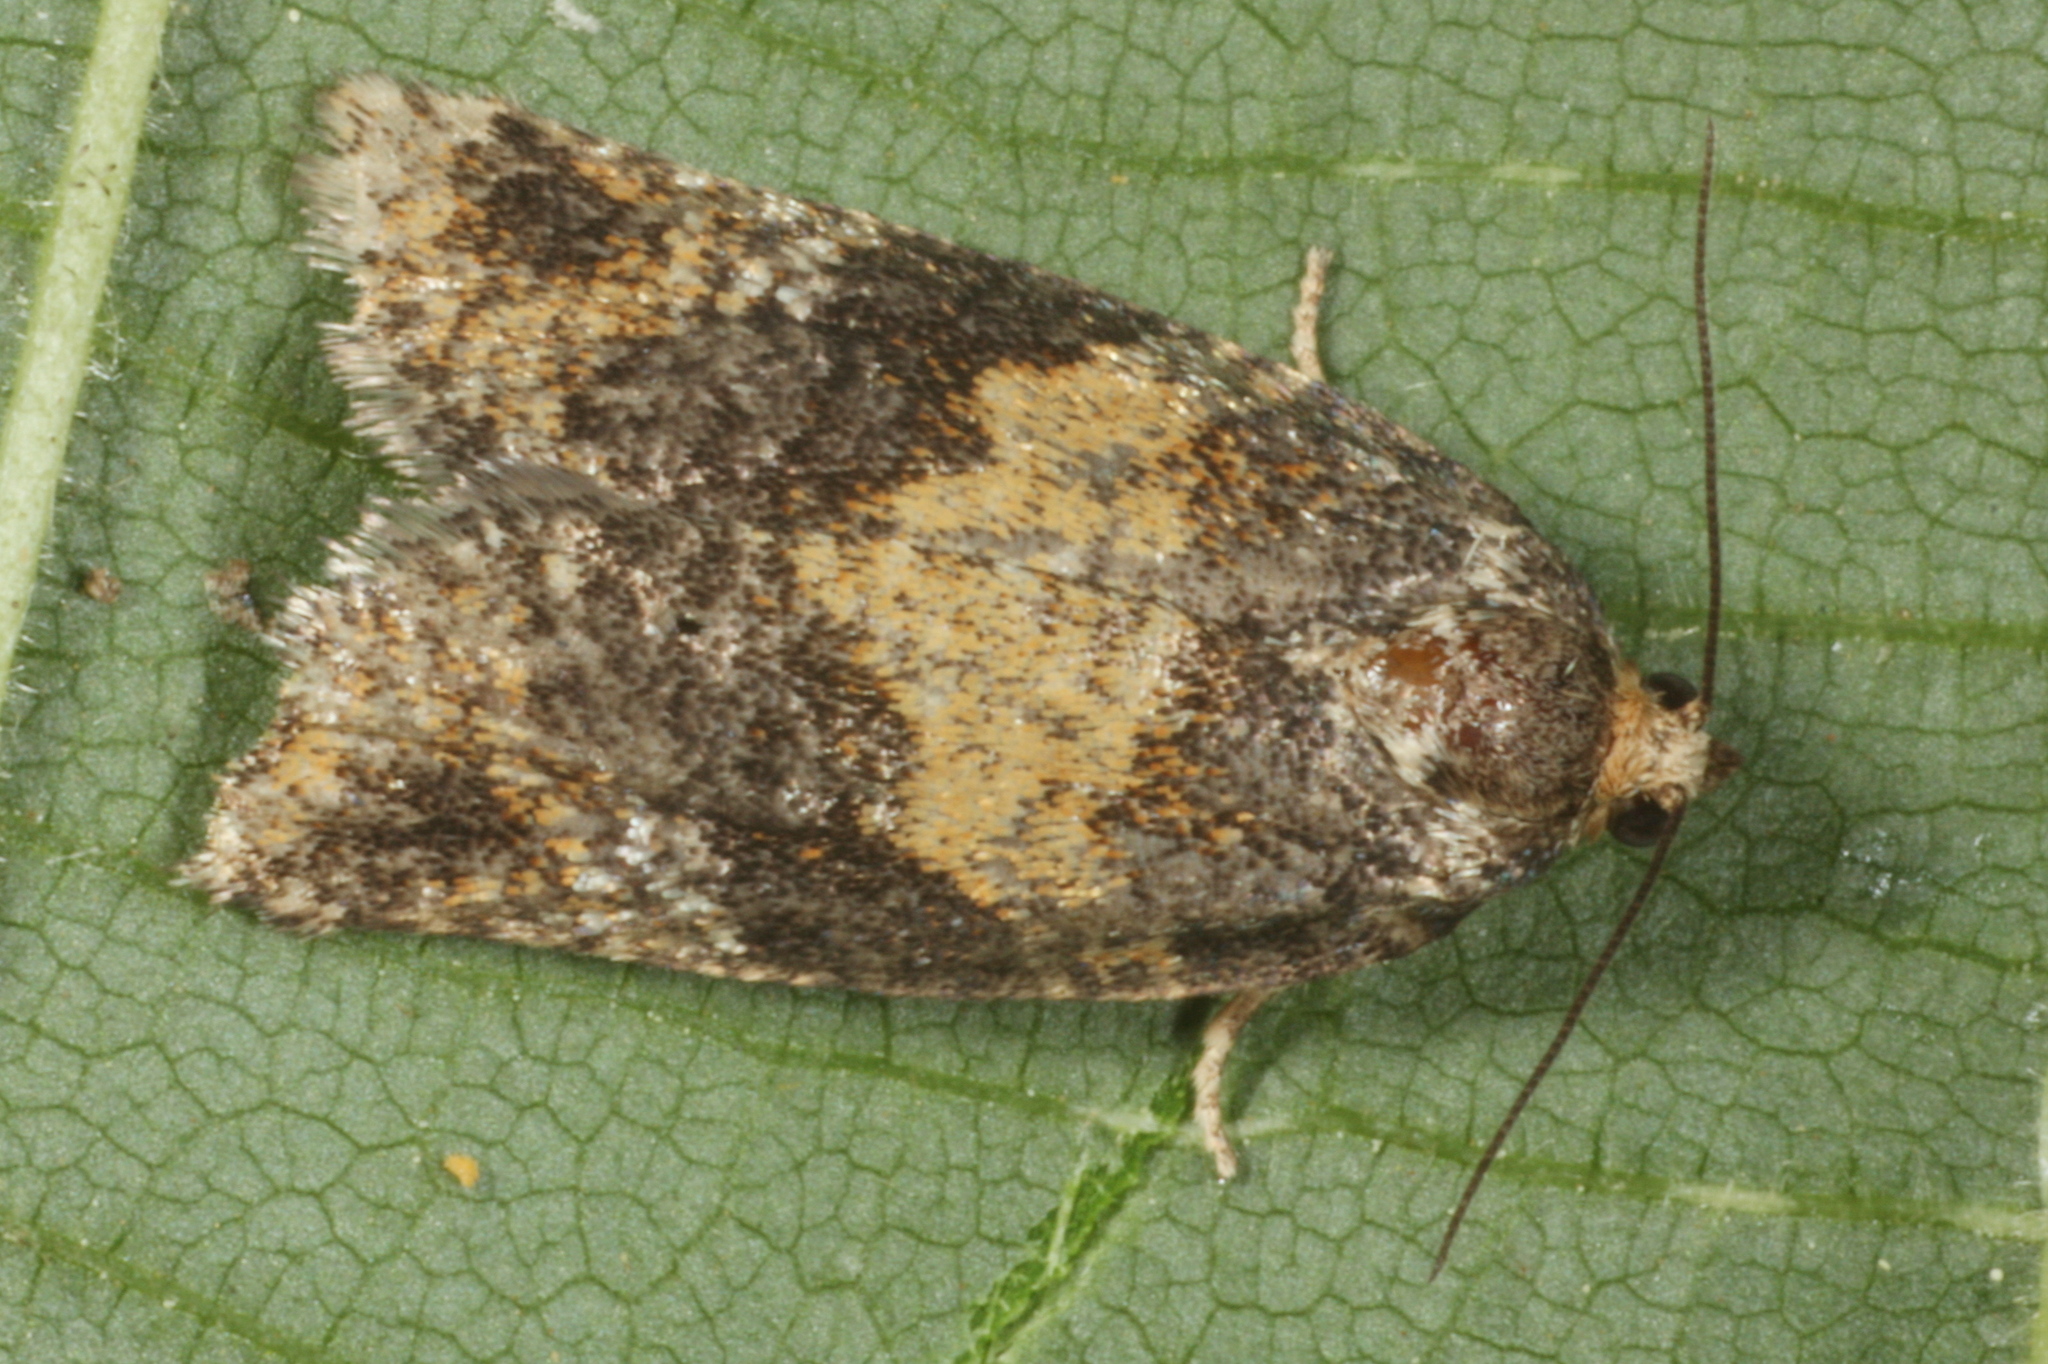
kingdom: Animalia
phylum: Arthropoda
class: Insecta
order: Lepidoptera
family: Tortricidae
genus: Ptycholomoides
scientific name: Ptycholomoides aeriferana
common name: Yellow larch tortrix
